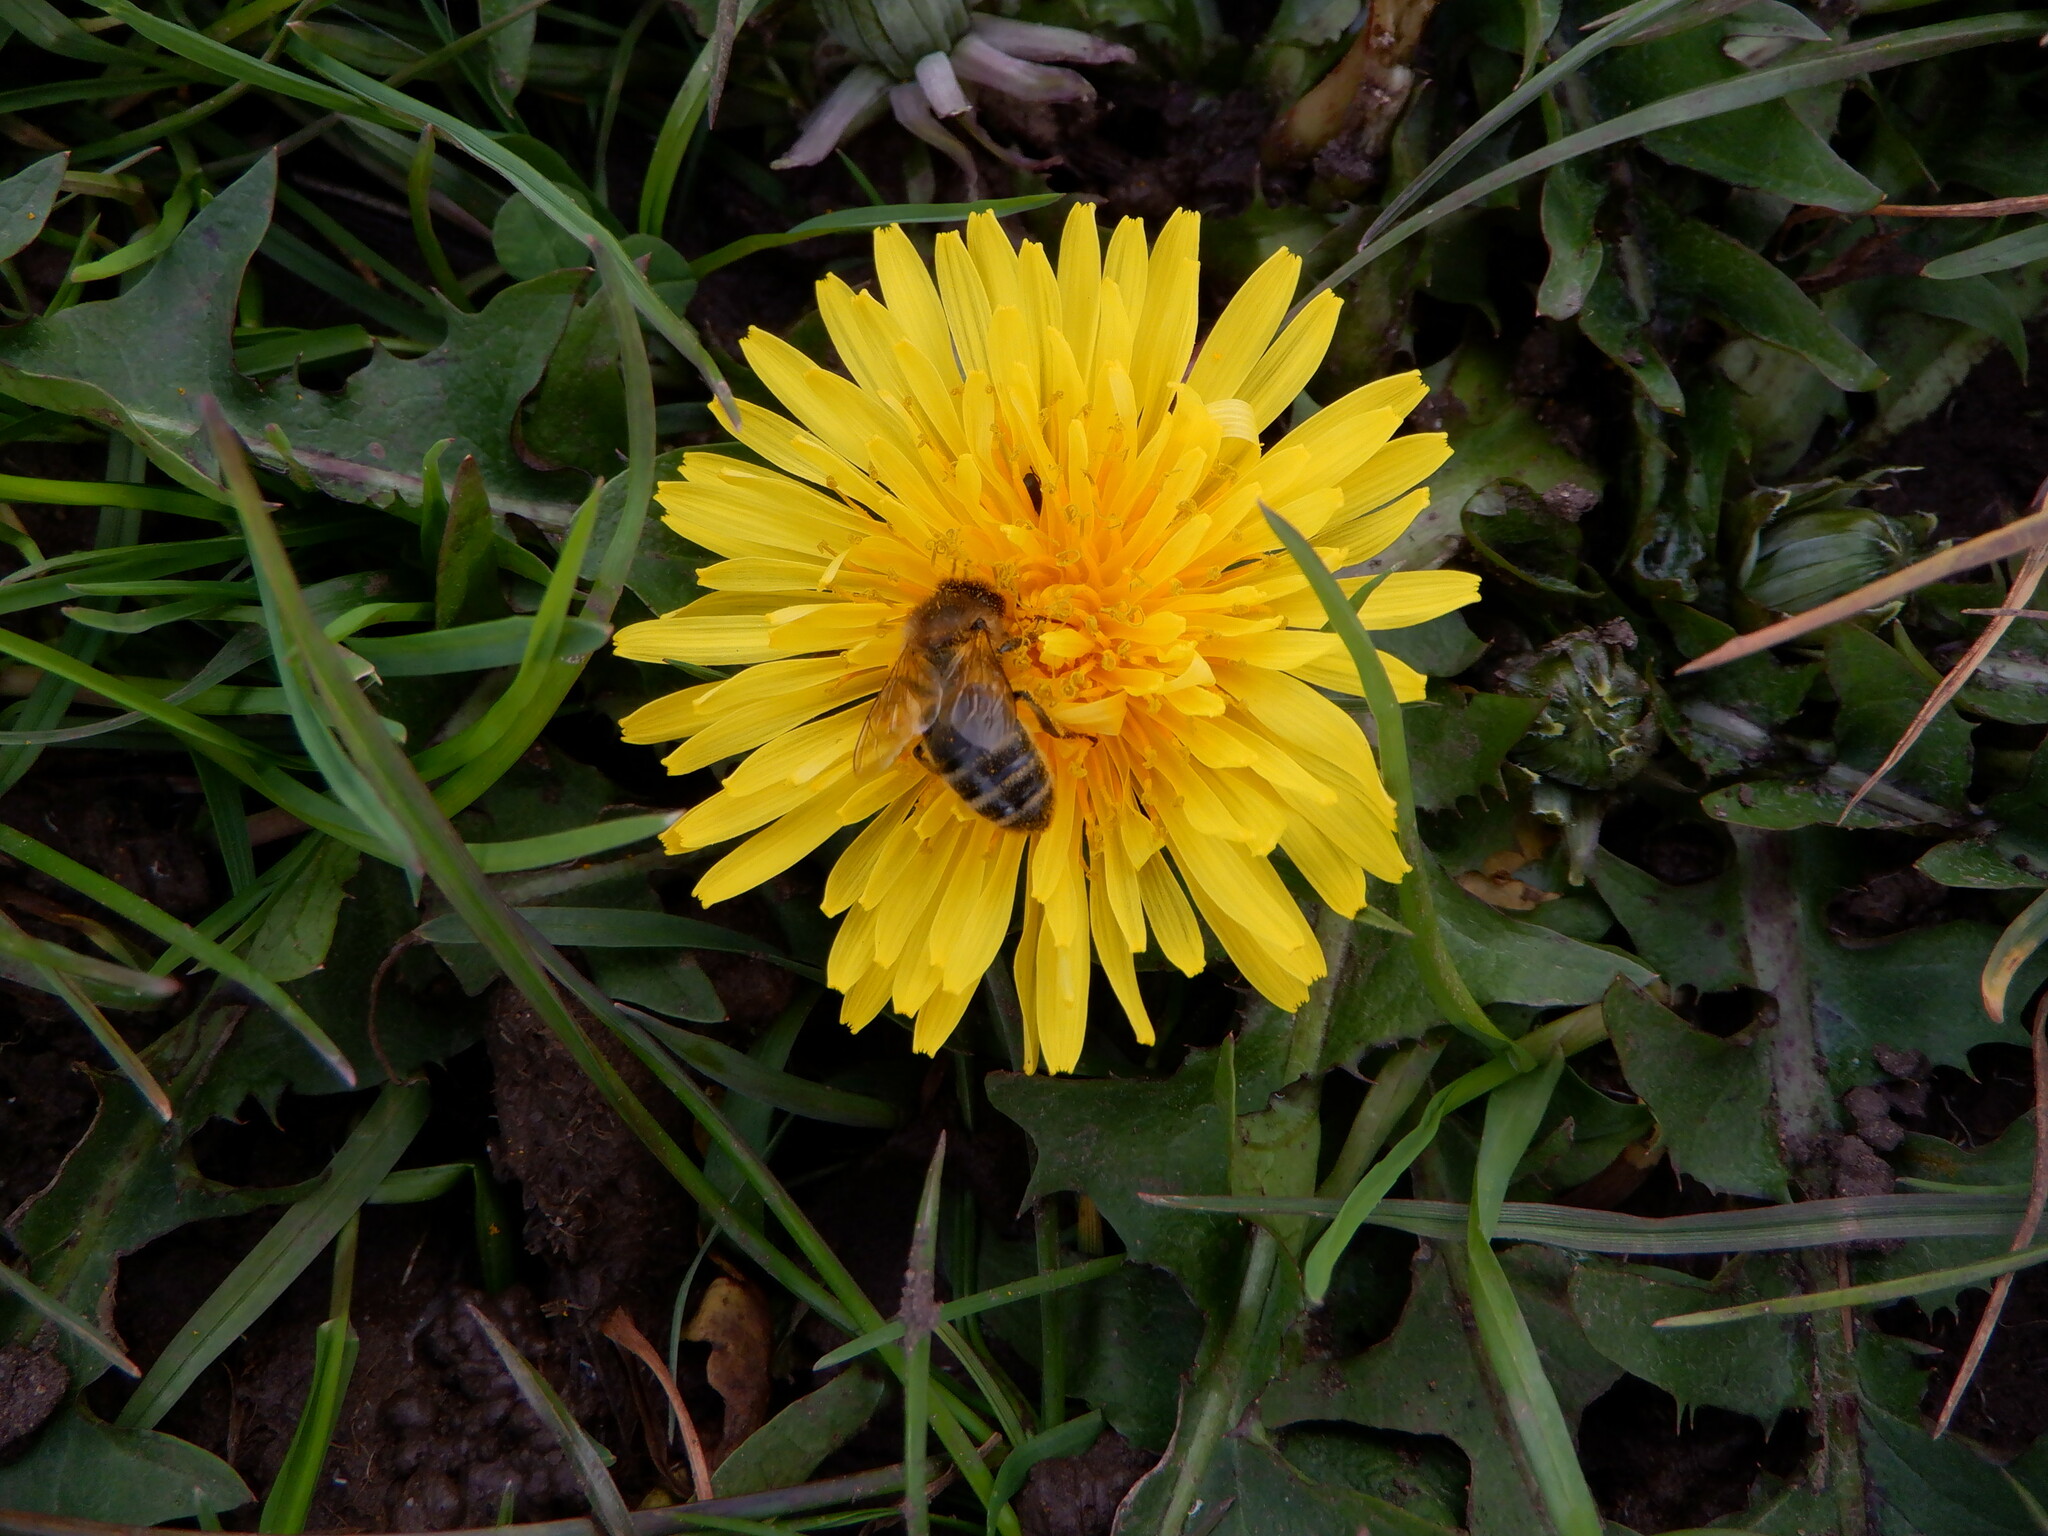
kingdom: Animalia
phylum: Arthropoda
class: Insecta
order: Hymenoptera
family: Apidae
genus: Apis
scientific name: Apis mellifera
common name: Honey bee
